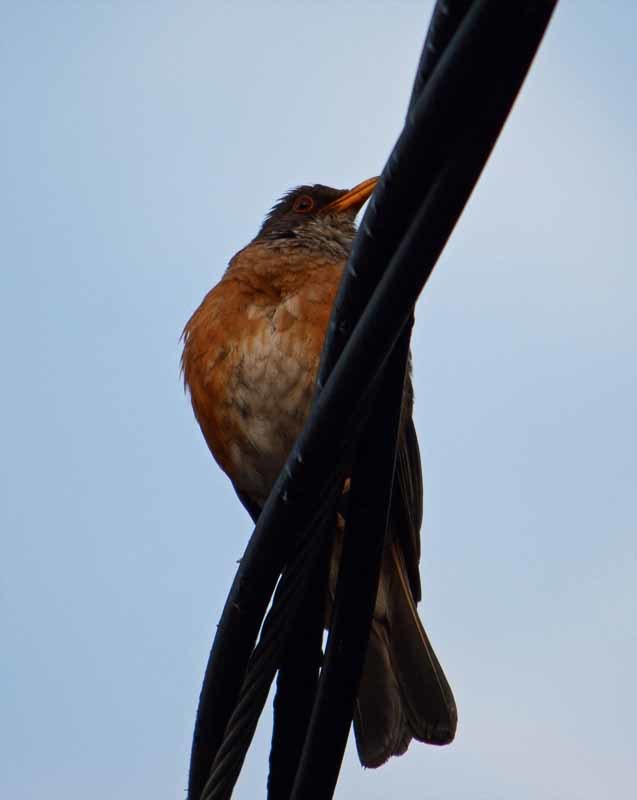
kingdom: Animalia
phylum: Chordata
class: Aves
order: Passeriformes
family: Turdidae
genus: Turdus
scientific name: Turdus rufopalliatus
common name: Rufous-backed robin
